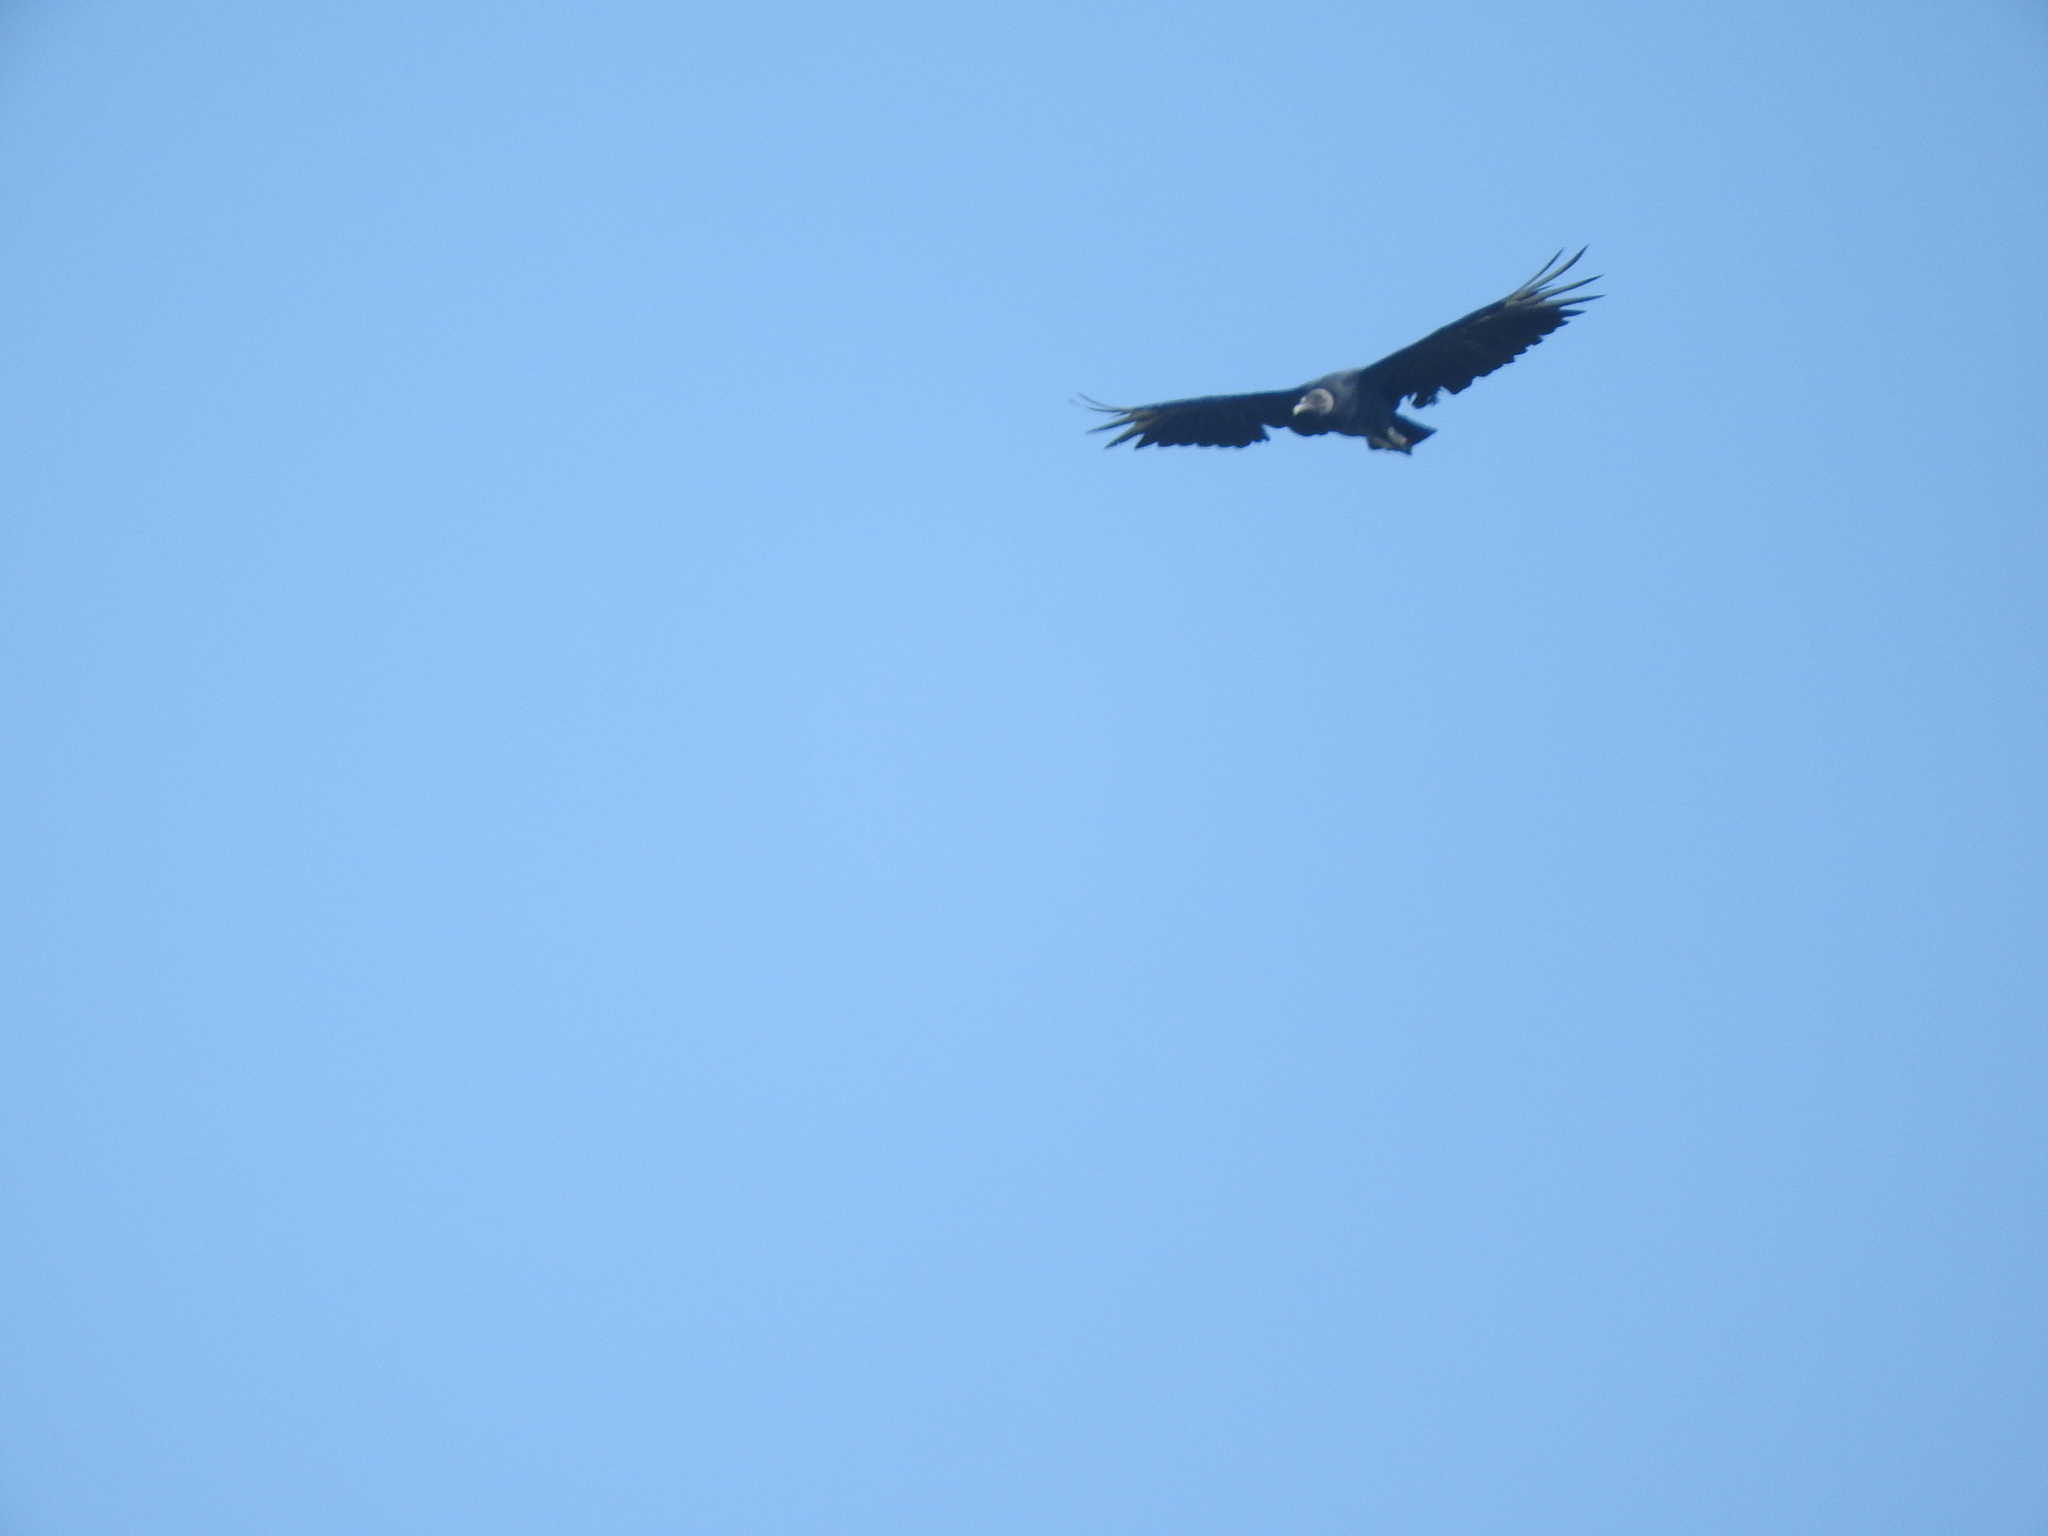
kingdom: Animalia
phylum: Chordata
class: Aves
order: Accipitriformes
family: Cathartidae
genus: Coragyps
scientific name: Coragyps atratus
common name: Black vulture
